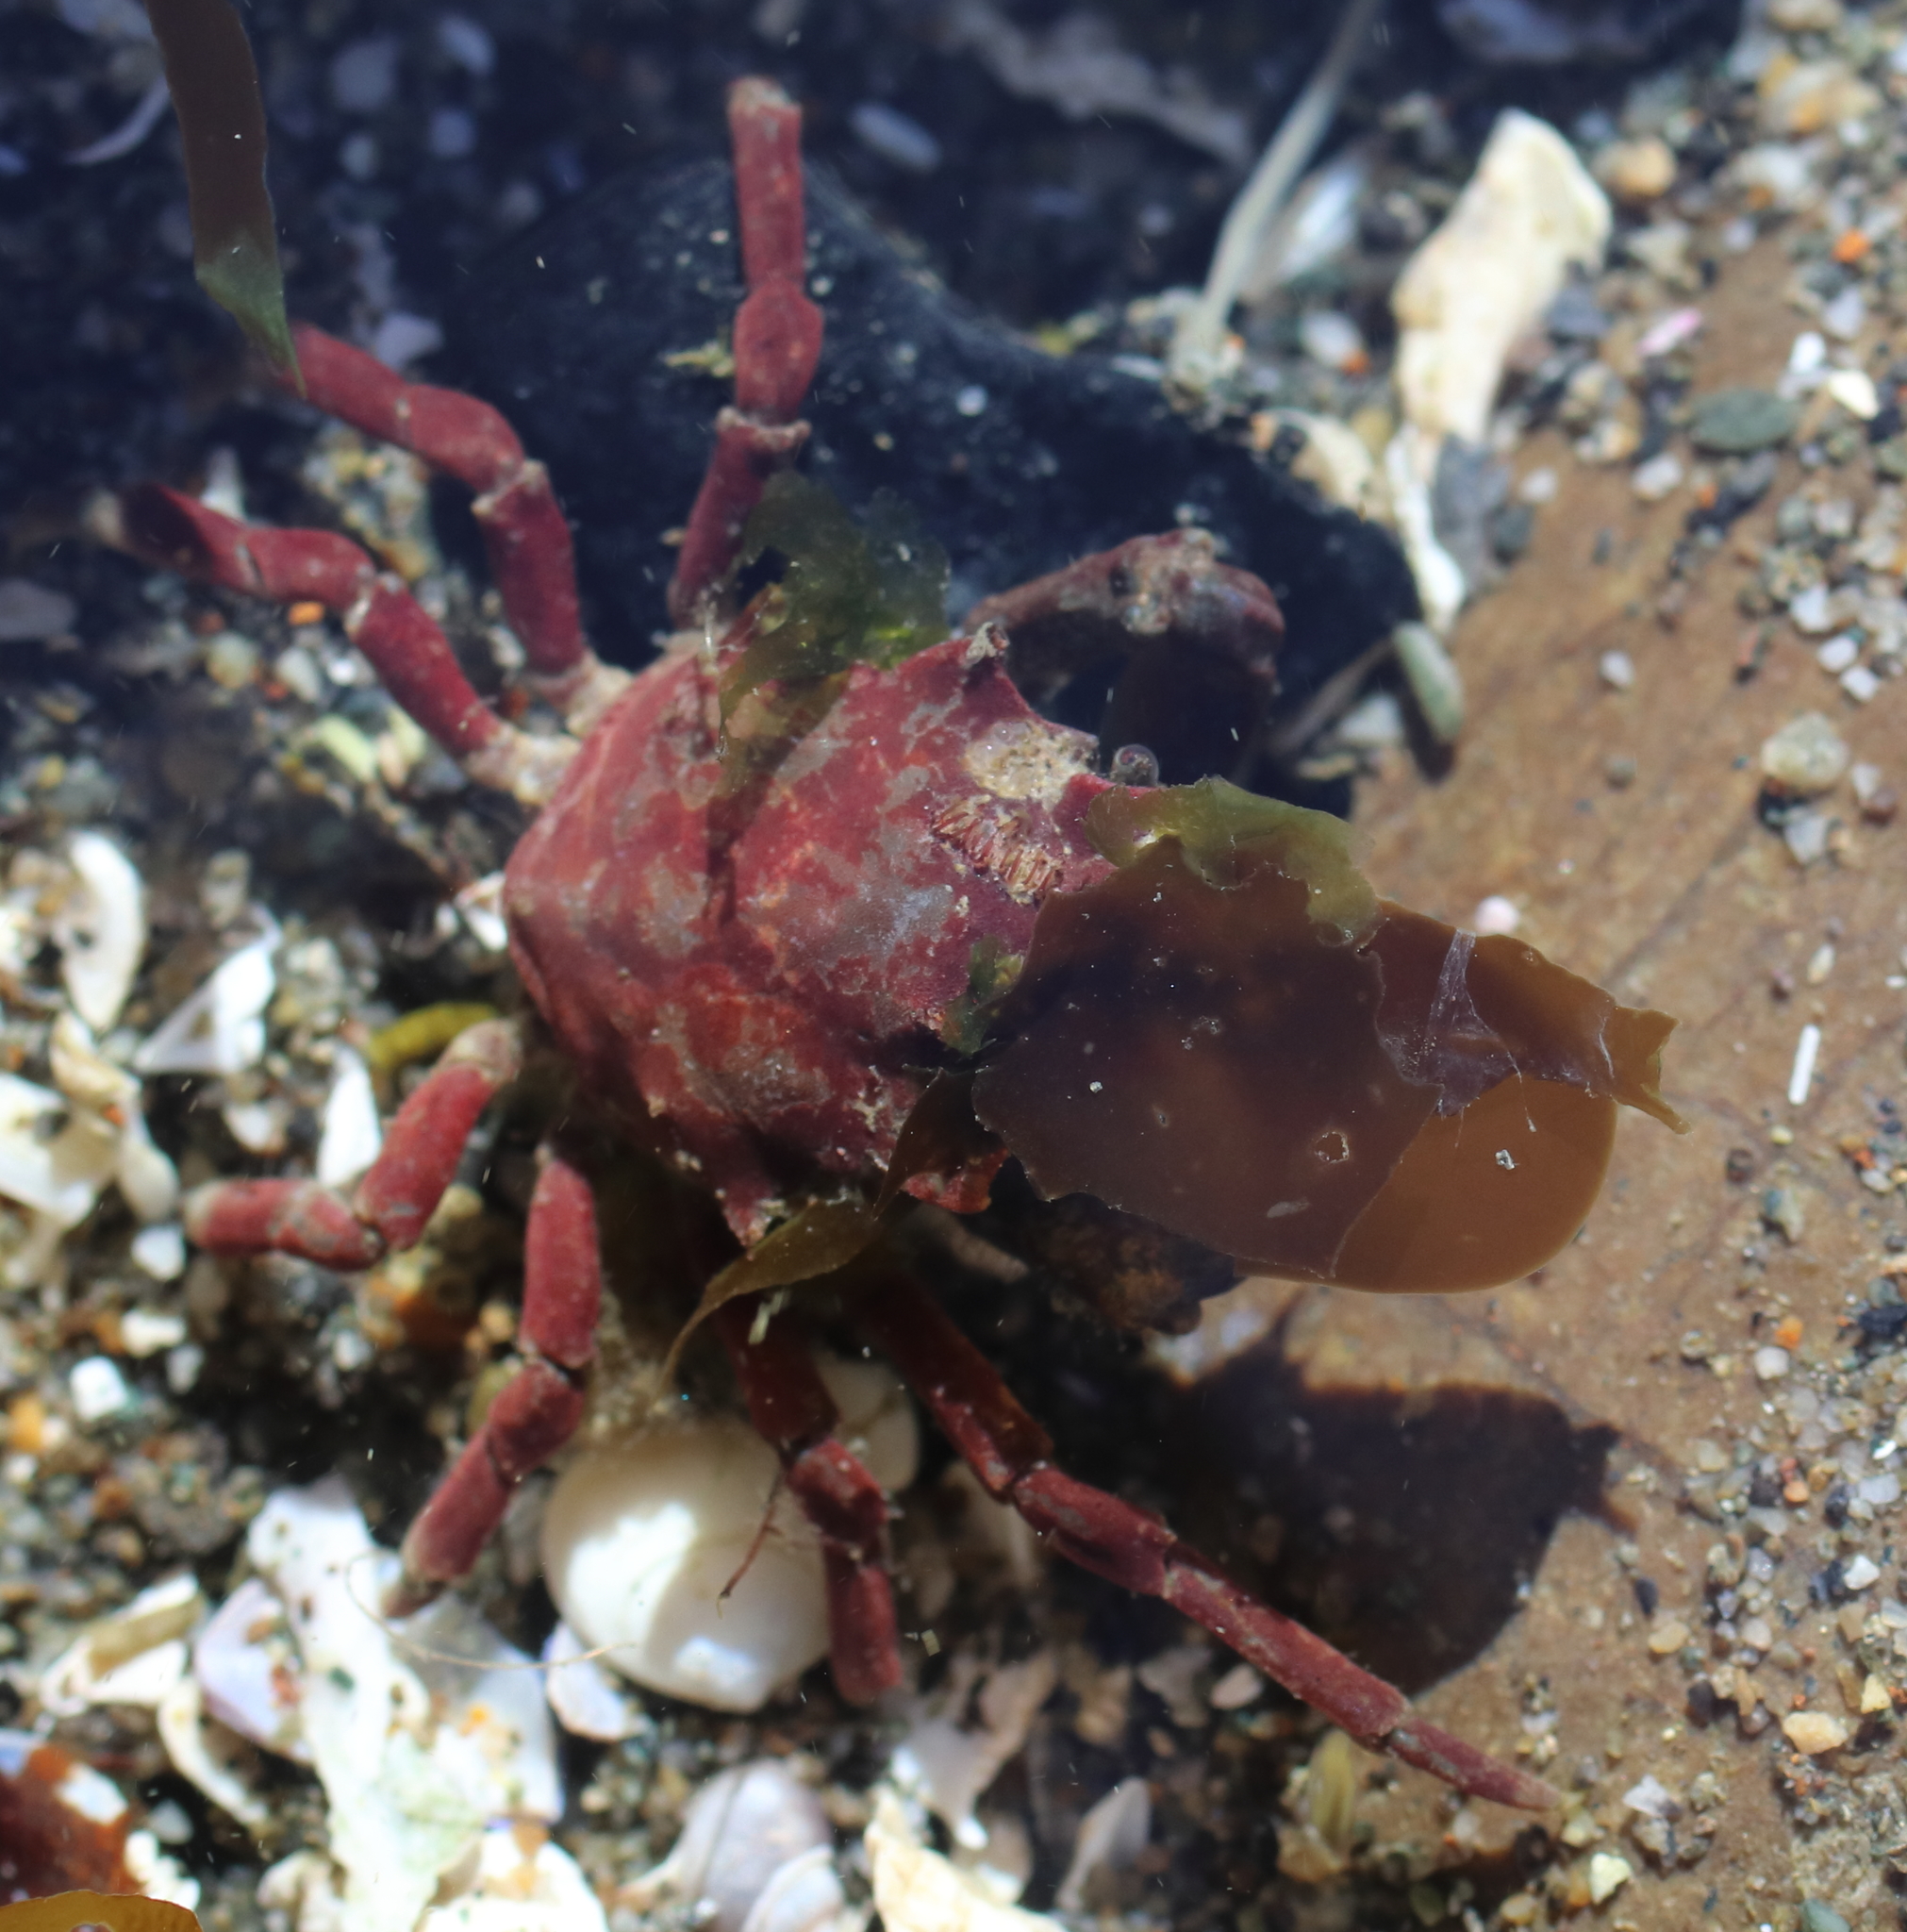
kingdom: Animalia
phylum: Arthropoda
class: Malacostraca
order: Decapoda
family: Epialtidae
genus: Pugettia
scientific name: Pugettia gracilis
